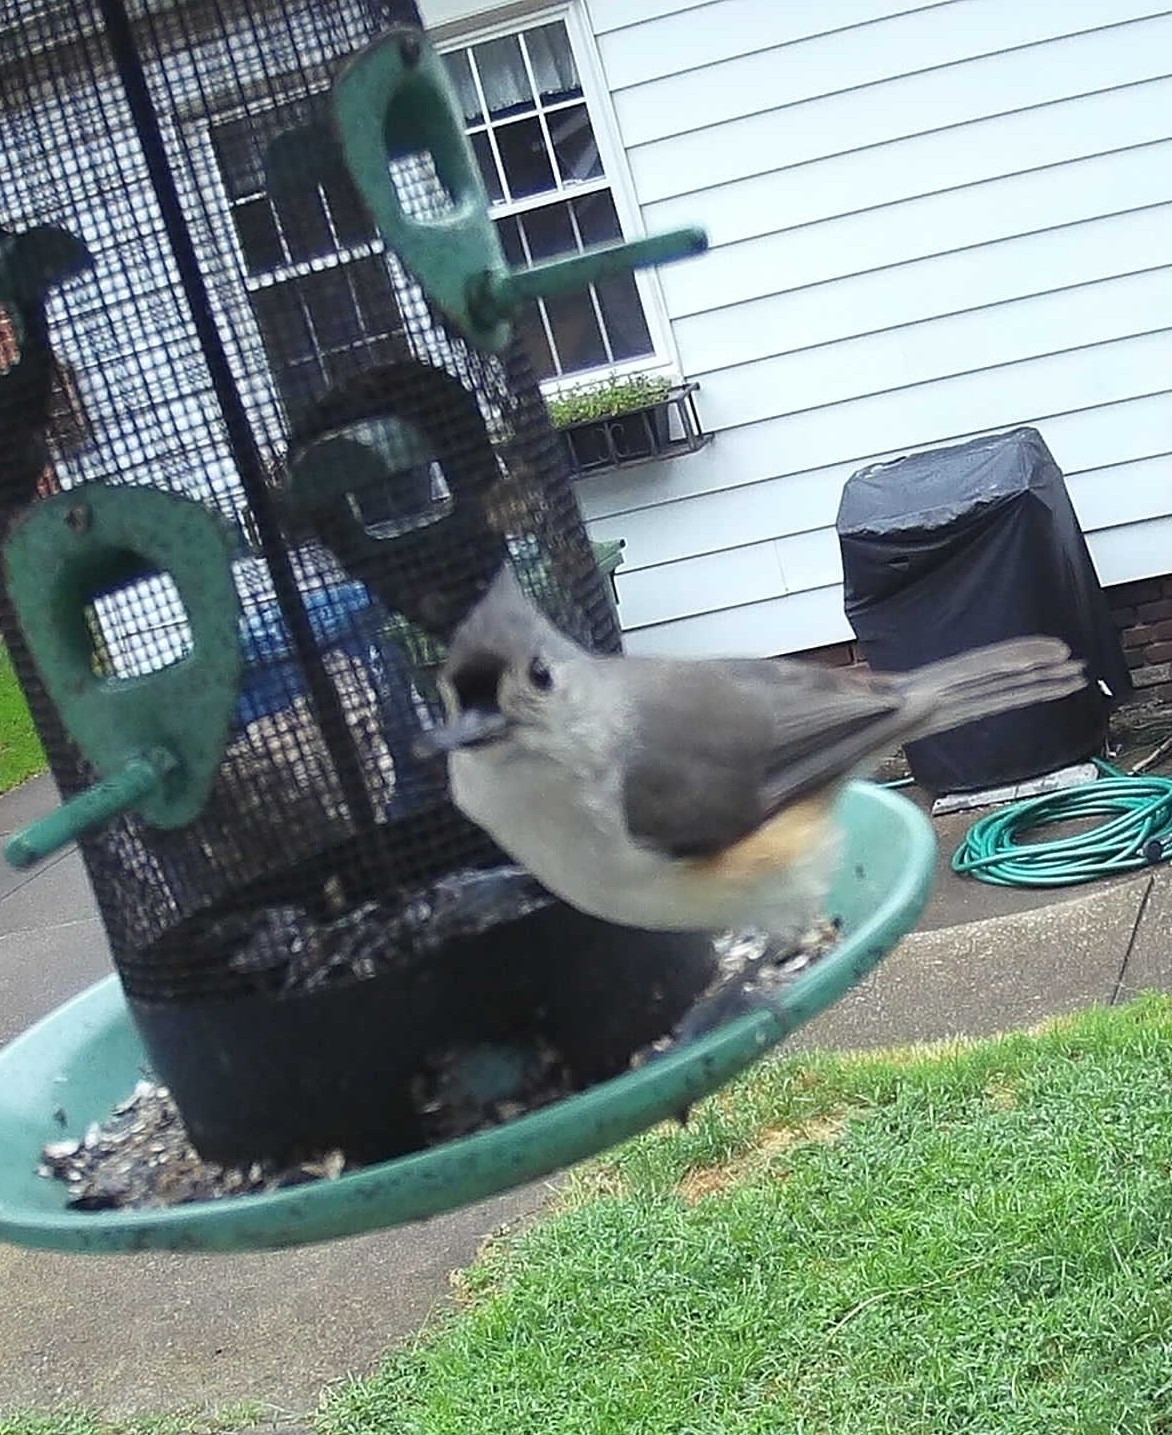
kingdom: Animalia
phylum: Chordata
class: Aves
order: Passeriformes
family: Paridae
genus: Baeolophus
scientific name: Baeolophus bicolor
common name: Tufted titmouse
